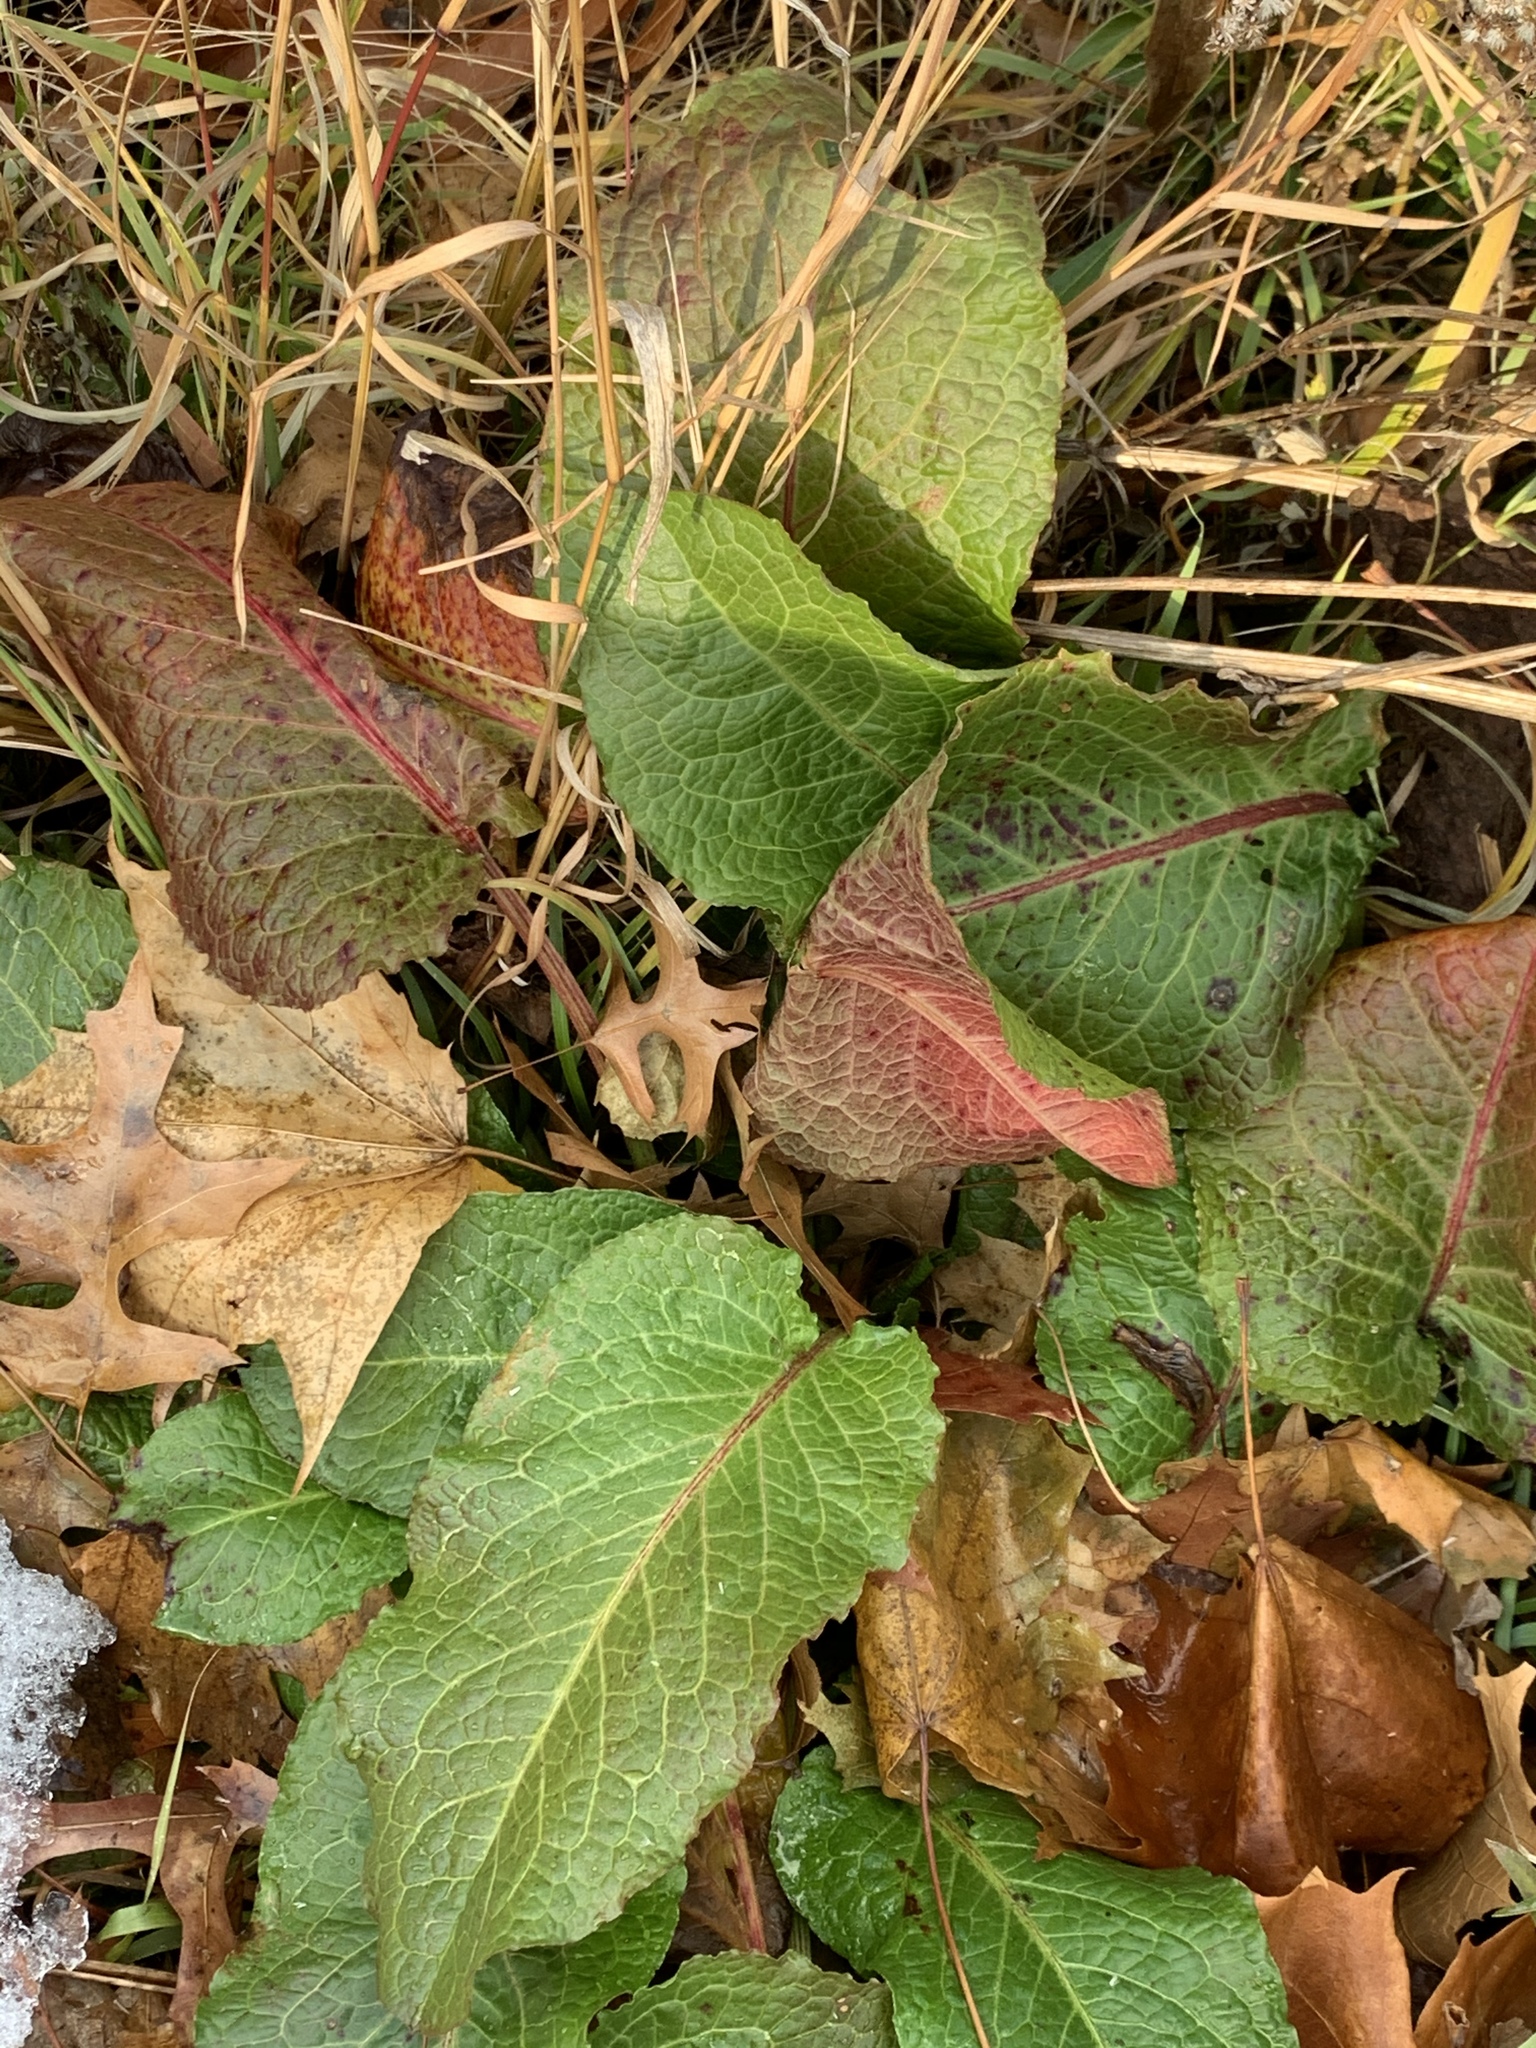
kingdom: Plantae
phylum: Tracheophyta
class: Magnoliopsida
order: Caryophyllales
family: Polygonaceae
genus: Rumex
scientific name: Rumex obtusifolius
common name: Bitter dock
